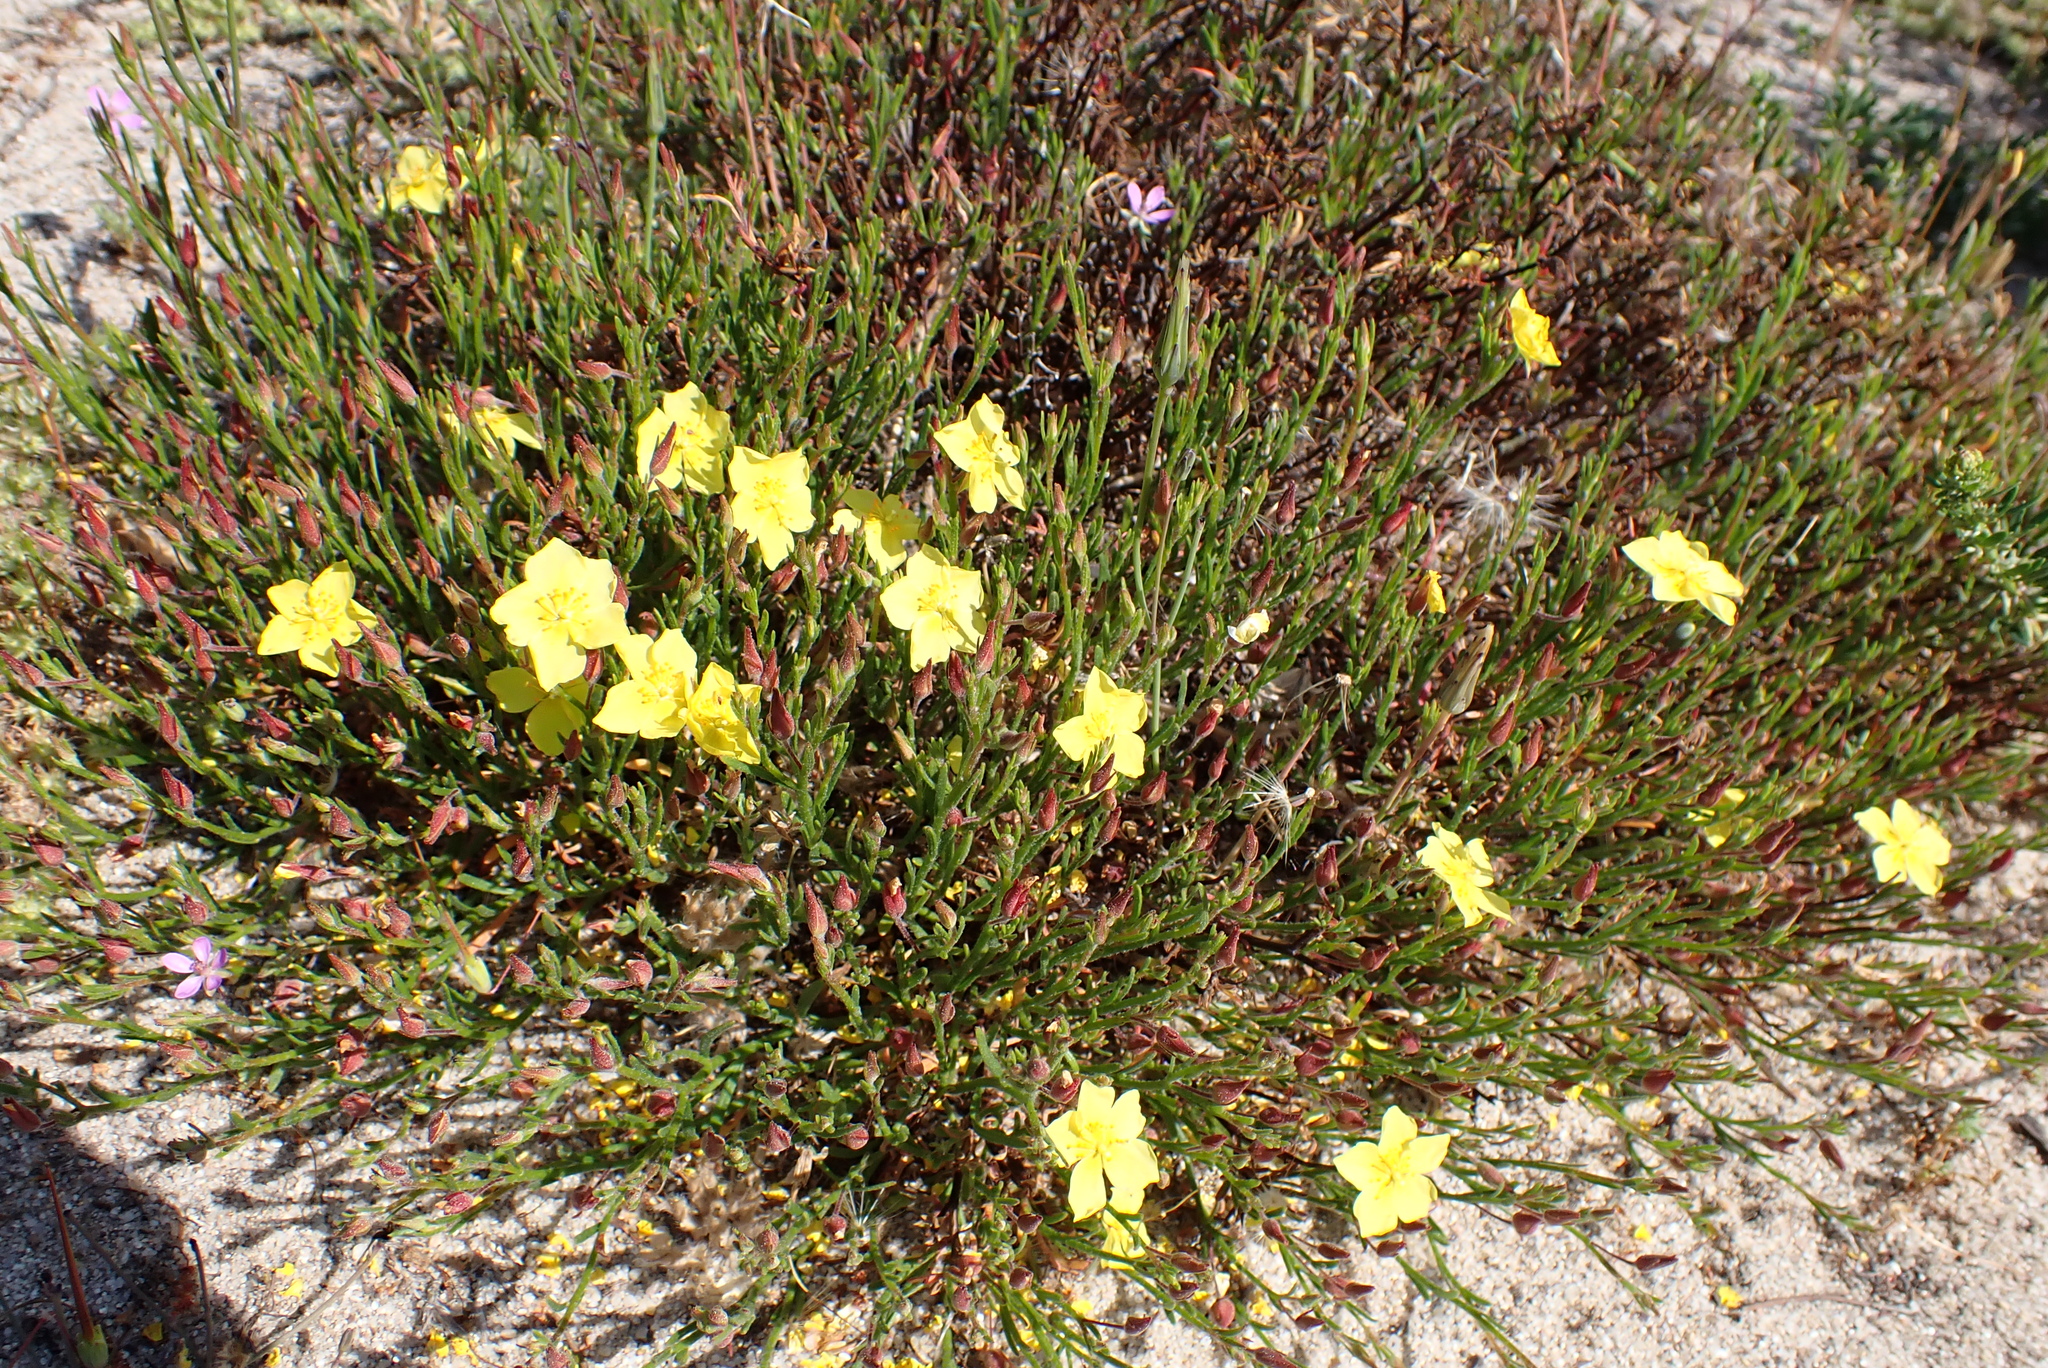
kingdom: Plantae
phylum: Tracheophyta
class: Magnoliopsida
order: Malvales
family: Cistaceae
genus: Crocanthemum
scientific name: Crocanthemum scoparium
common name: Broom-rose
